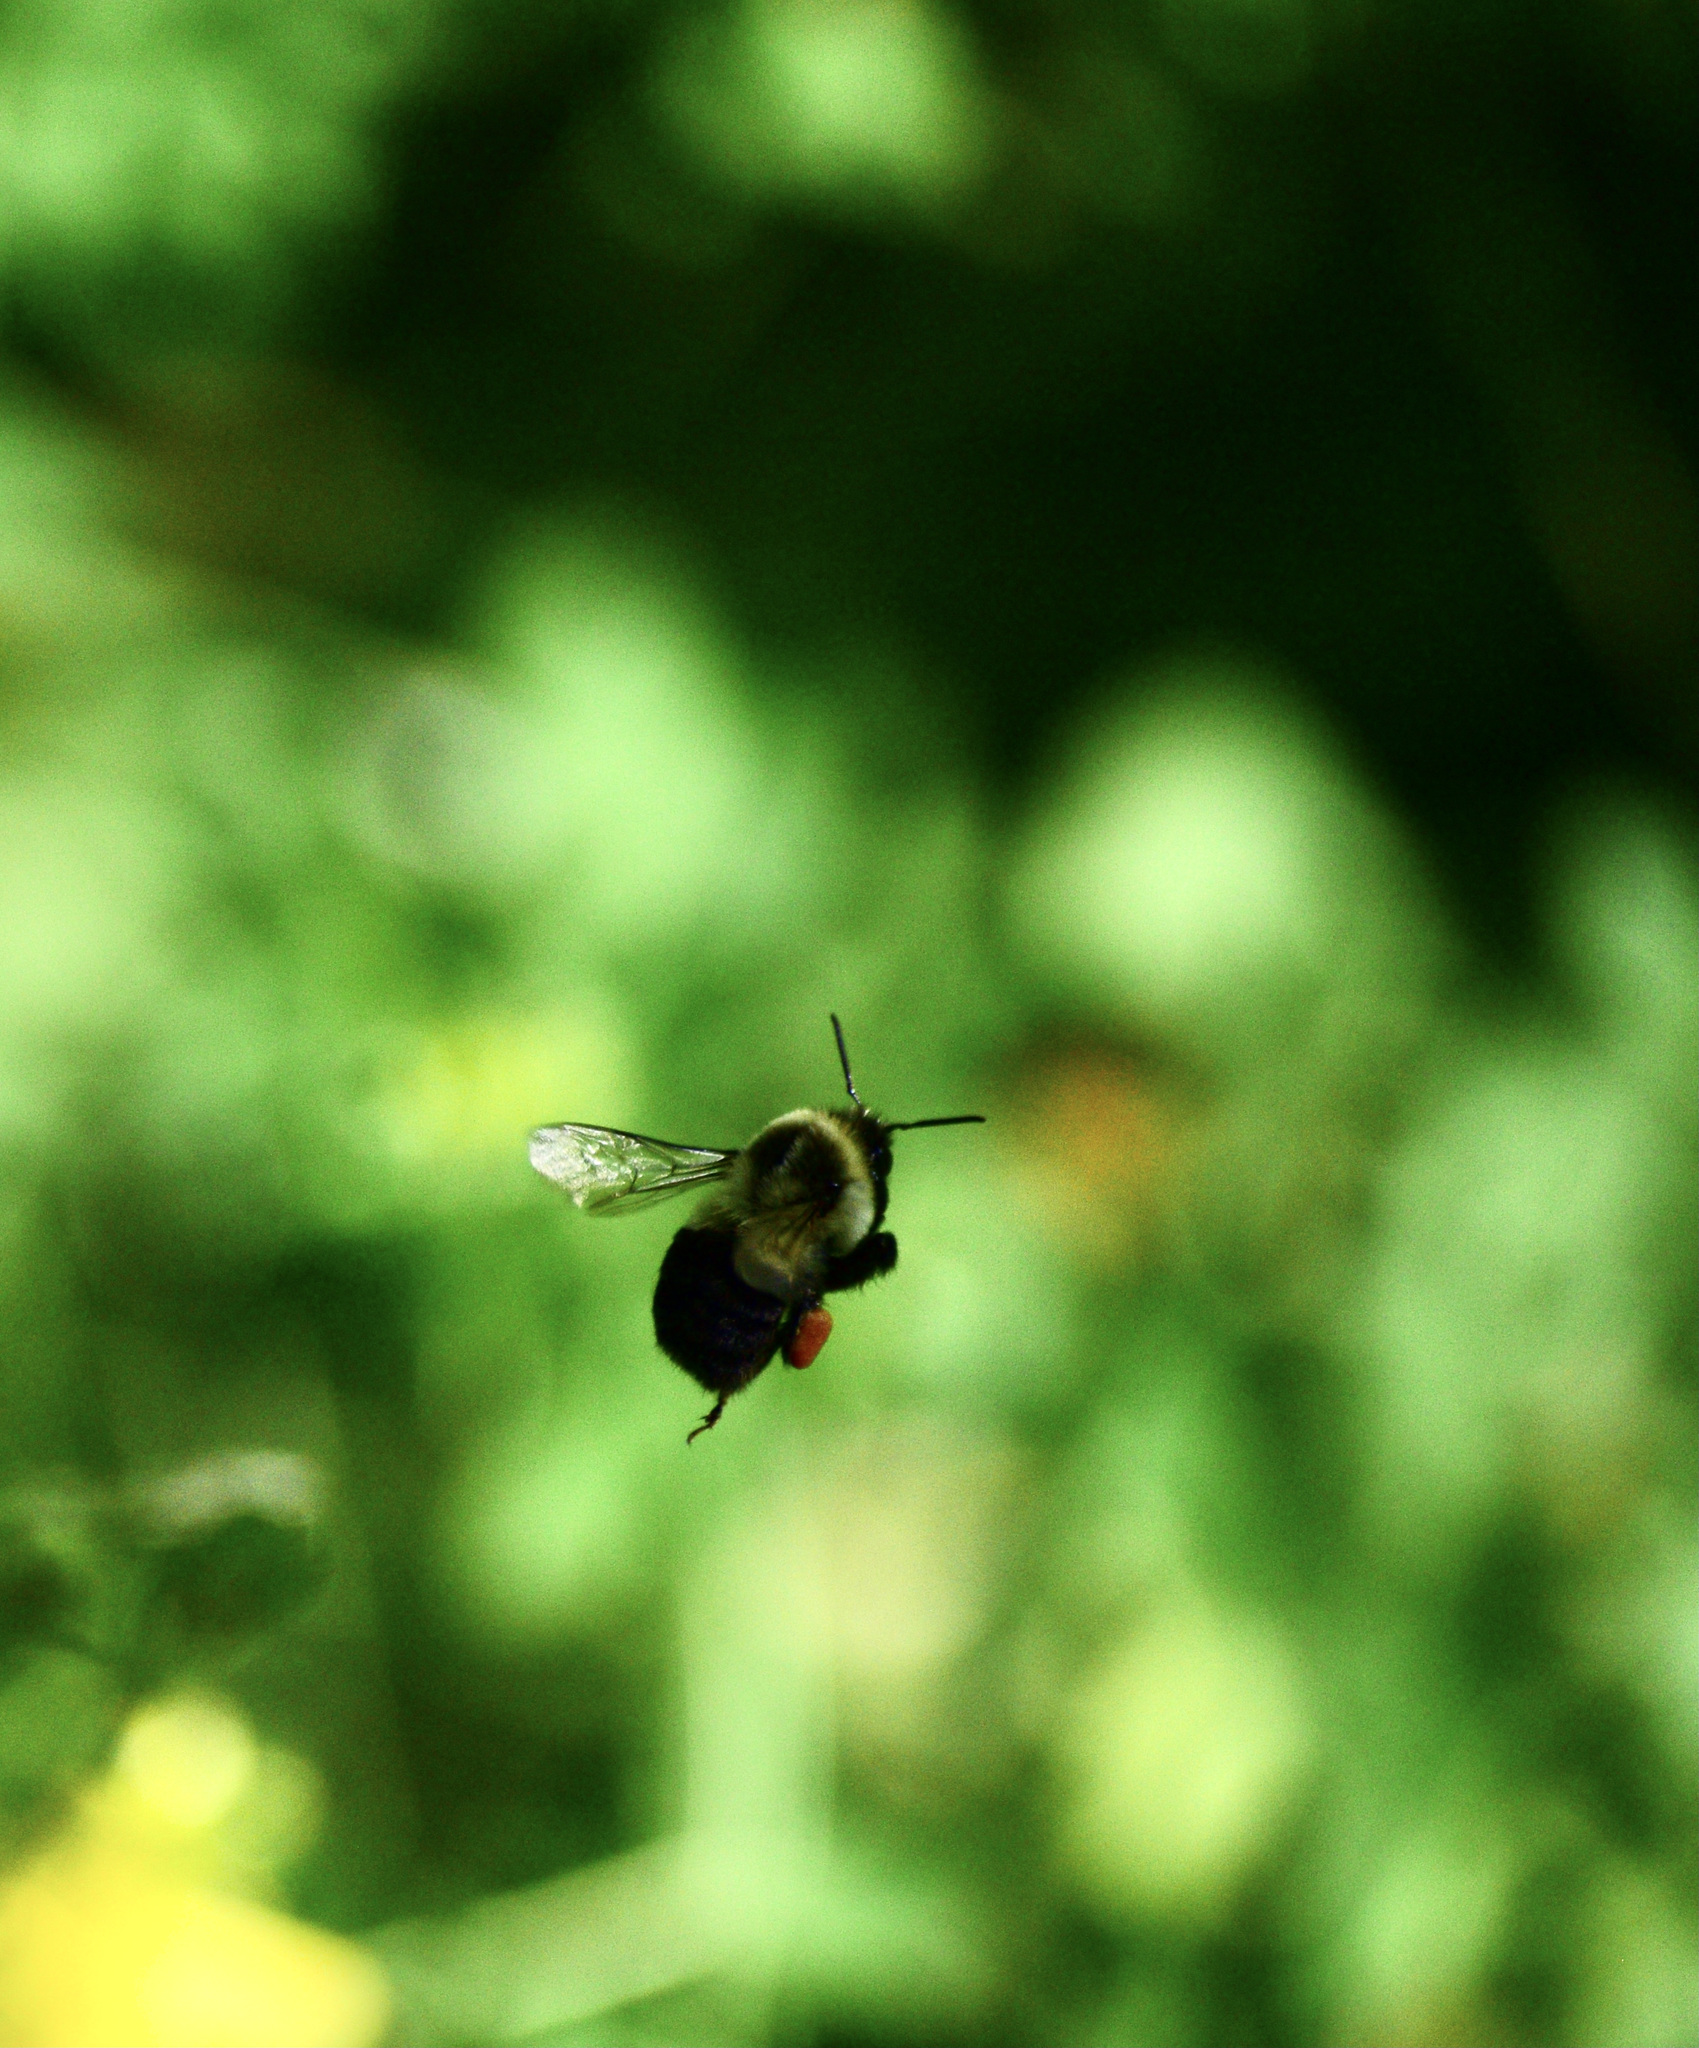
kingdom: Animalia
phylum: Arthropoda
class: Insecta
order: Hymenoptera
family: Apidae
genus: Bombus
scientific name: Bombus impatiens
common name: Common eastern bumble bee
